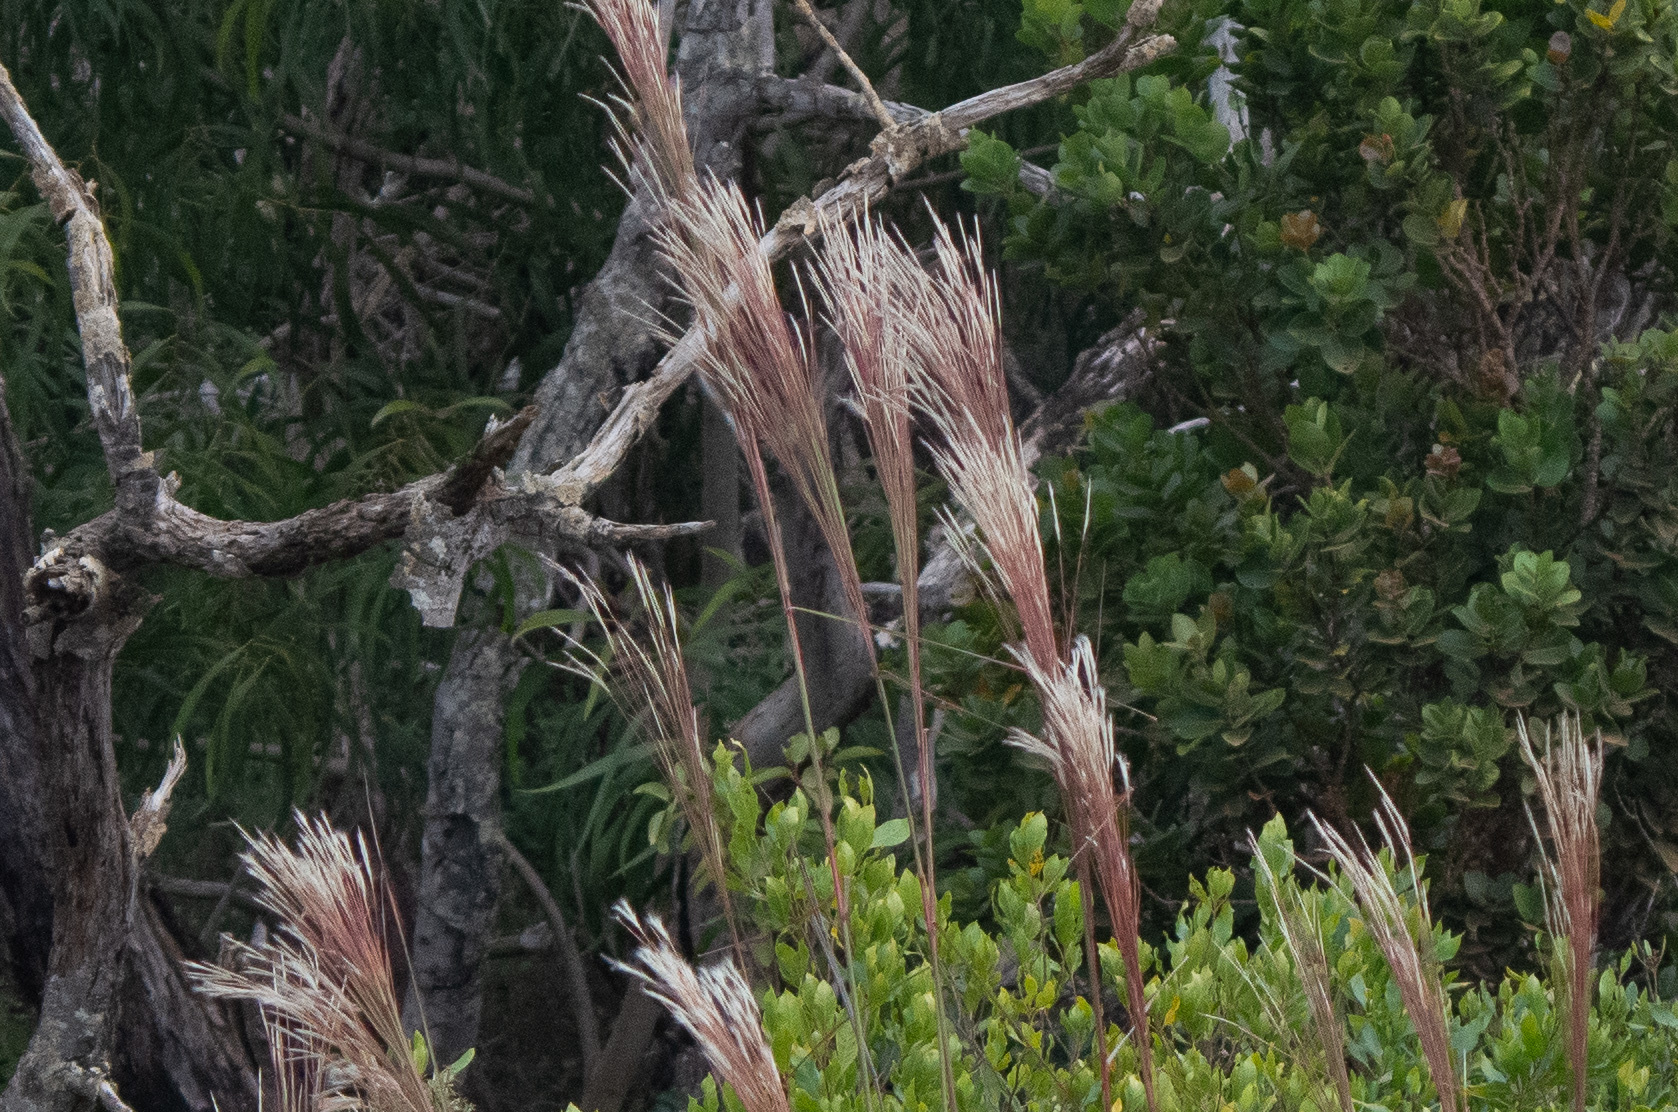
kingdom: Plantae
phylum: Tracheophyta
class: Liliopsida
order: Poales
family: Poaceae
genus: Andropogon
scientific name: Andropogon bicornis
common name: West indian foxtail grass
